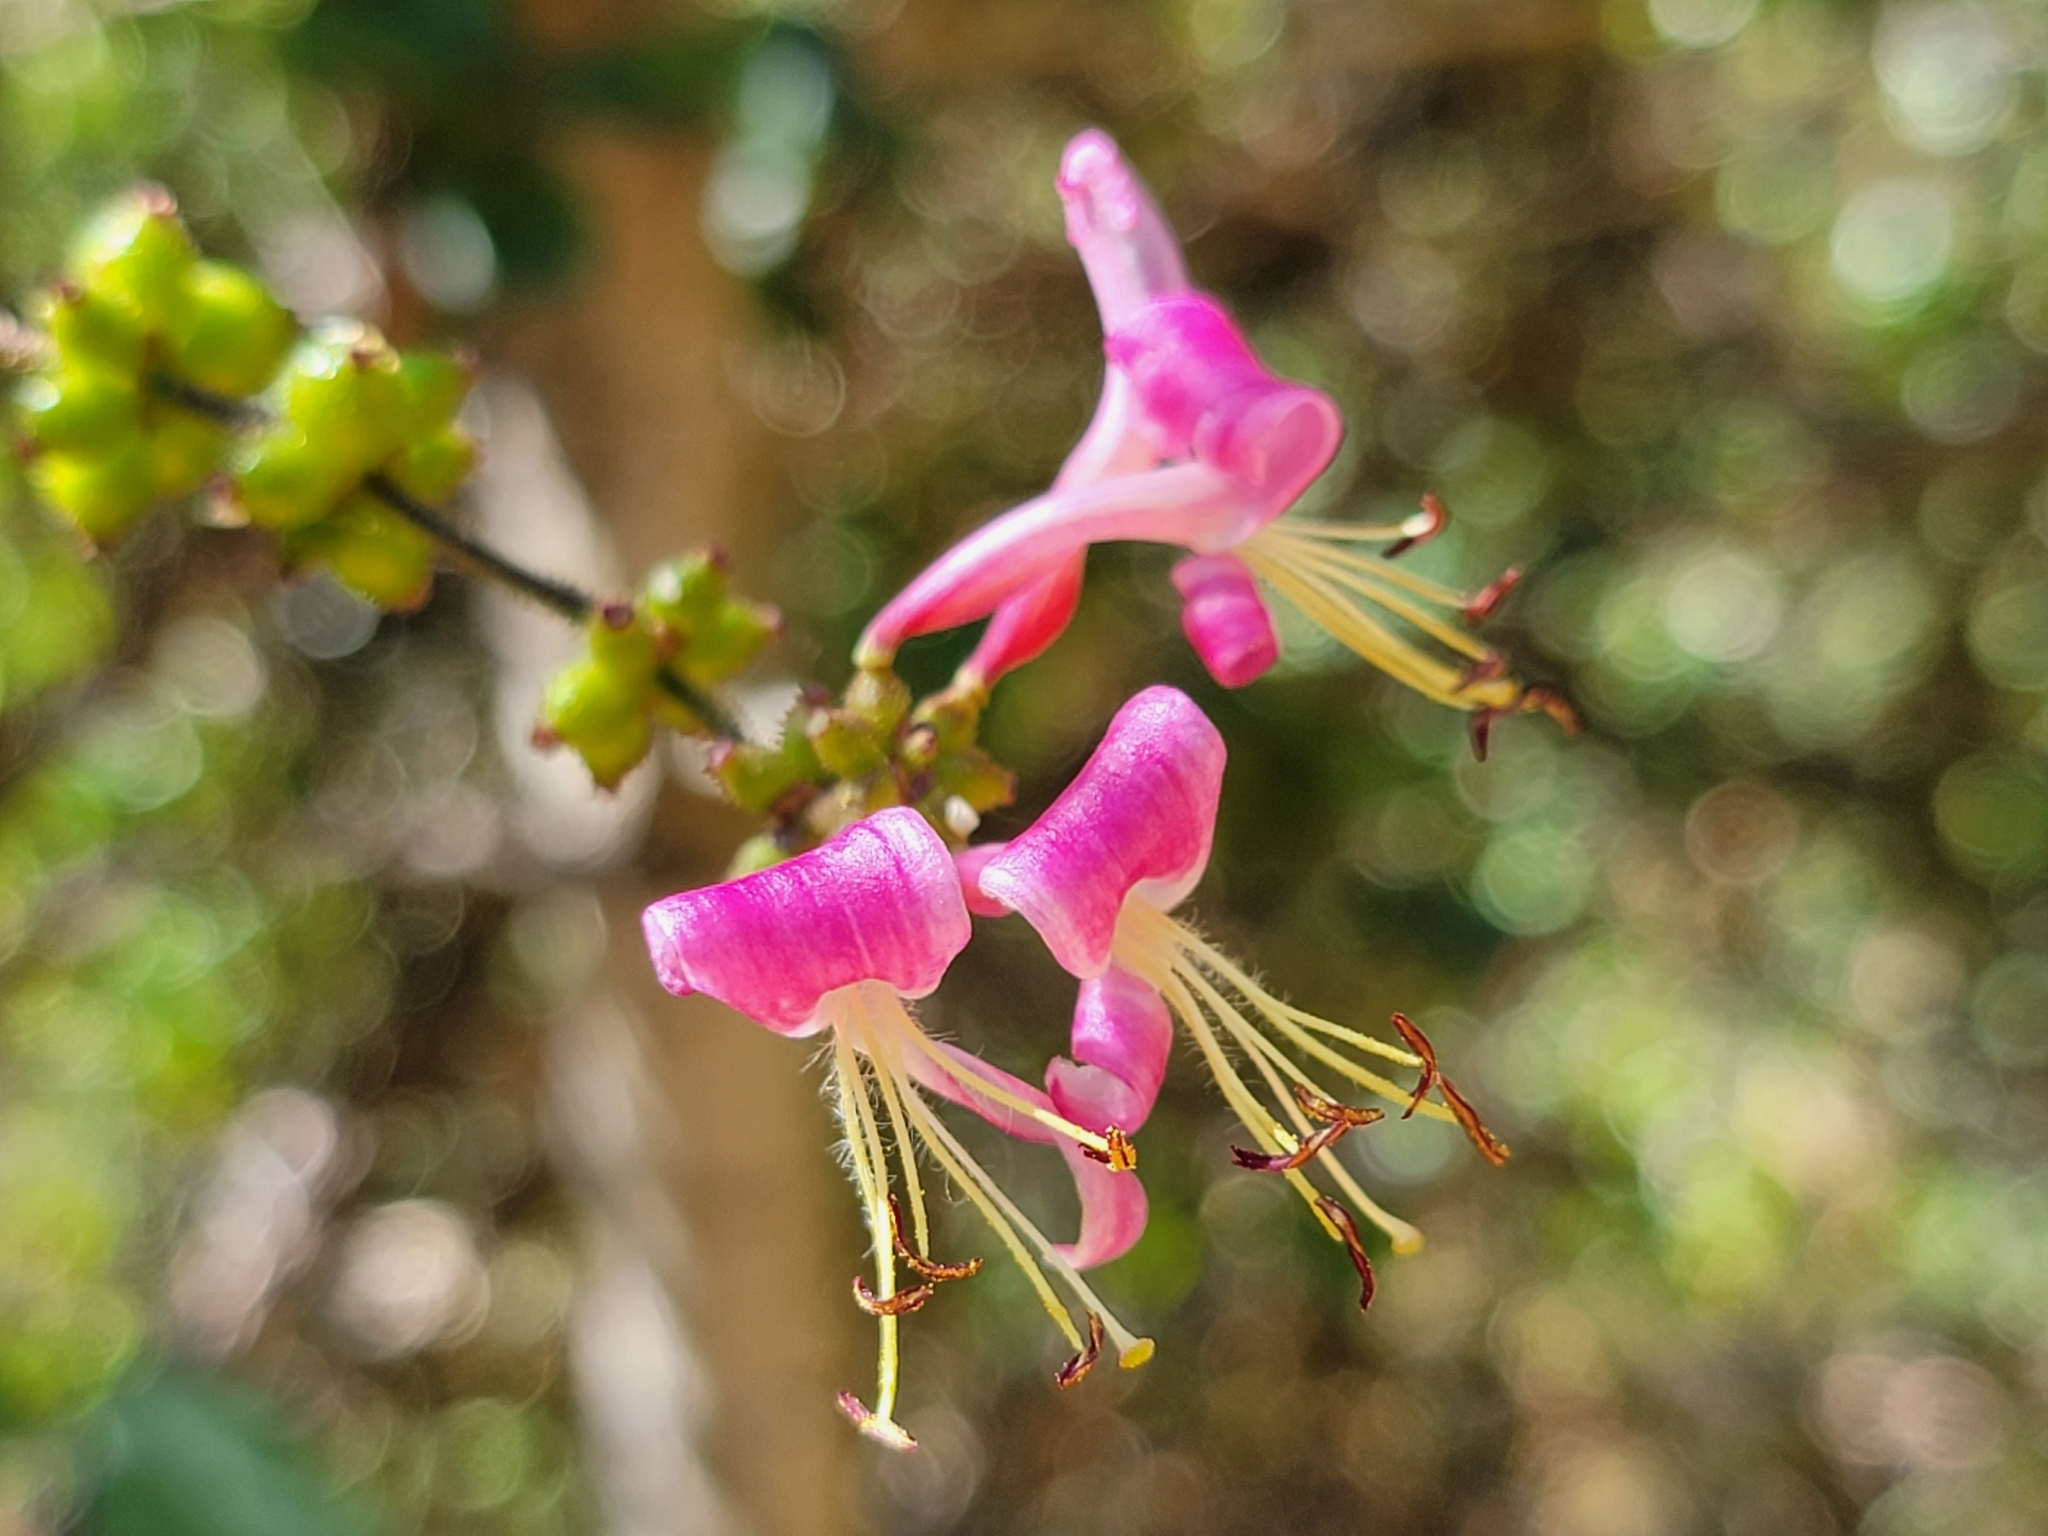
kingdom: Plantae
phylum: Tracheophyta
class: Magnoliopsida
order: Dipsacales
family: Caprifoliaceae
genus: Lonicera
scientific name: Lonicera hispidula
